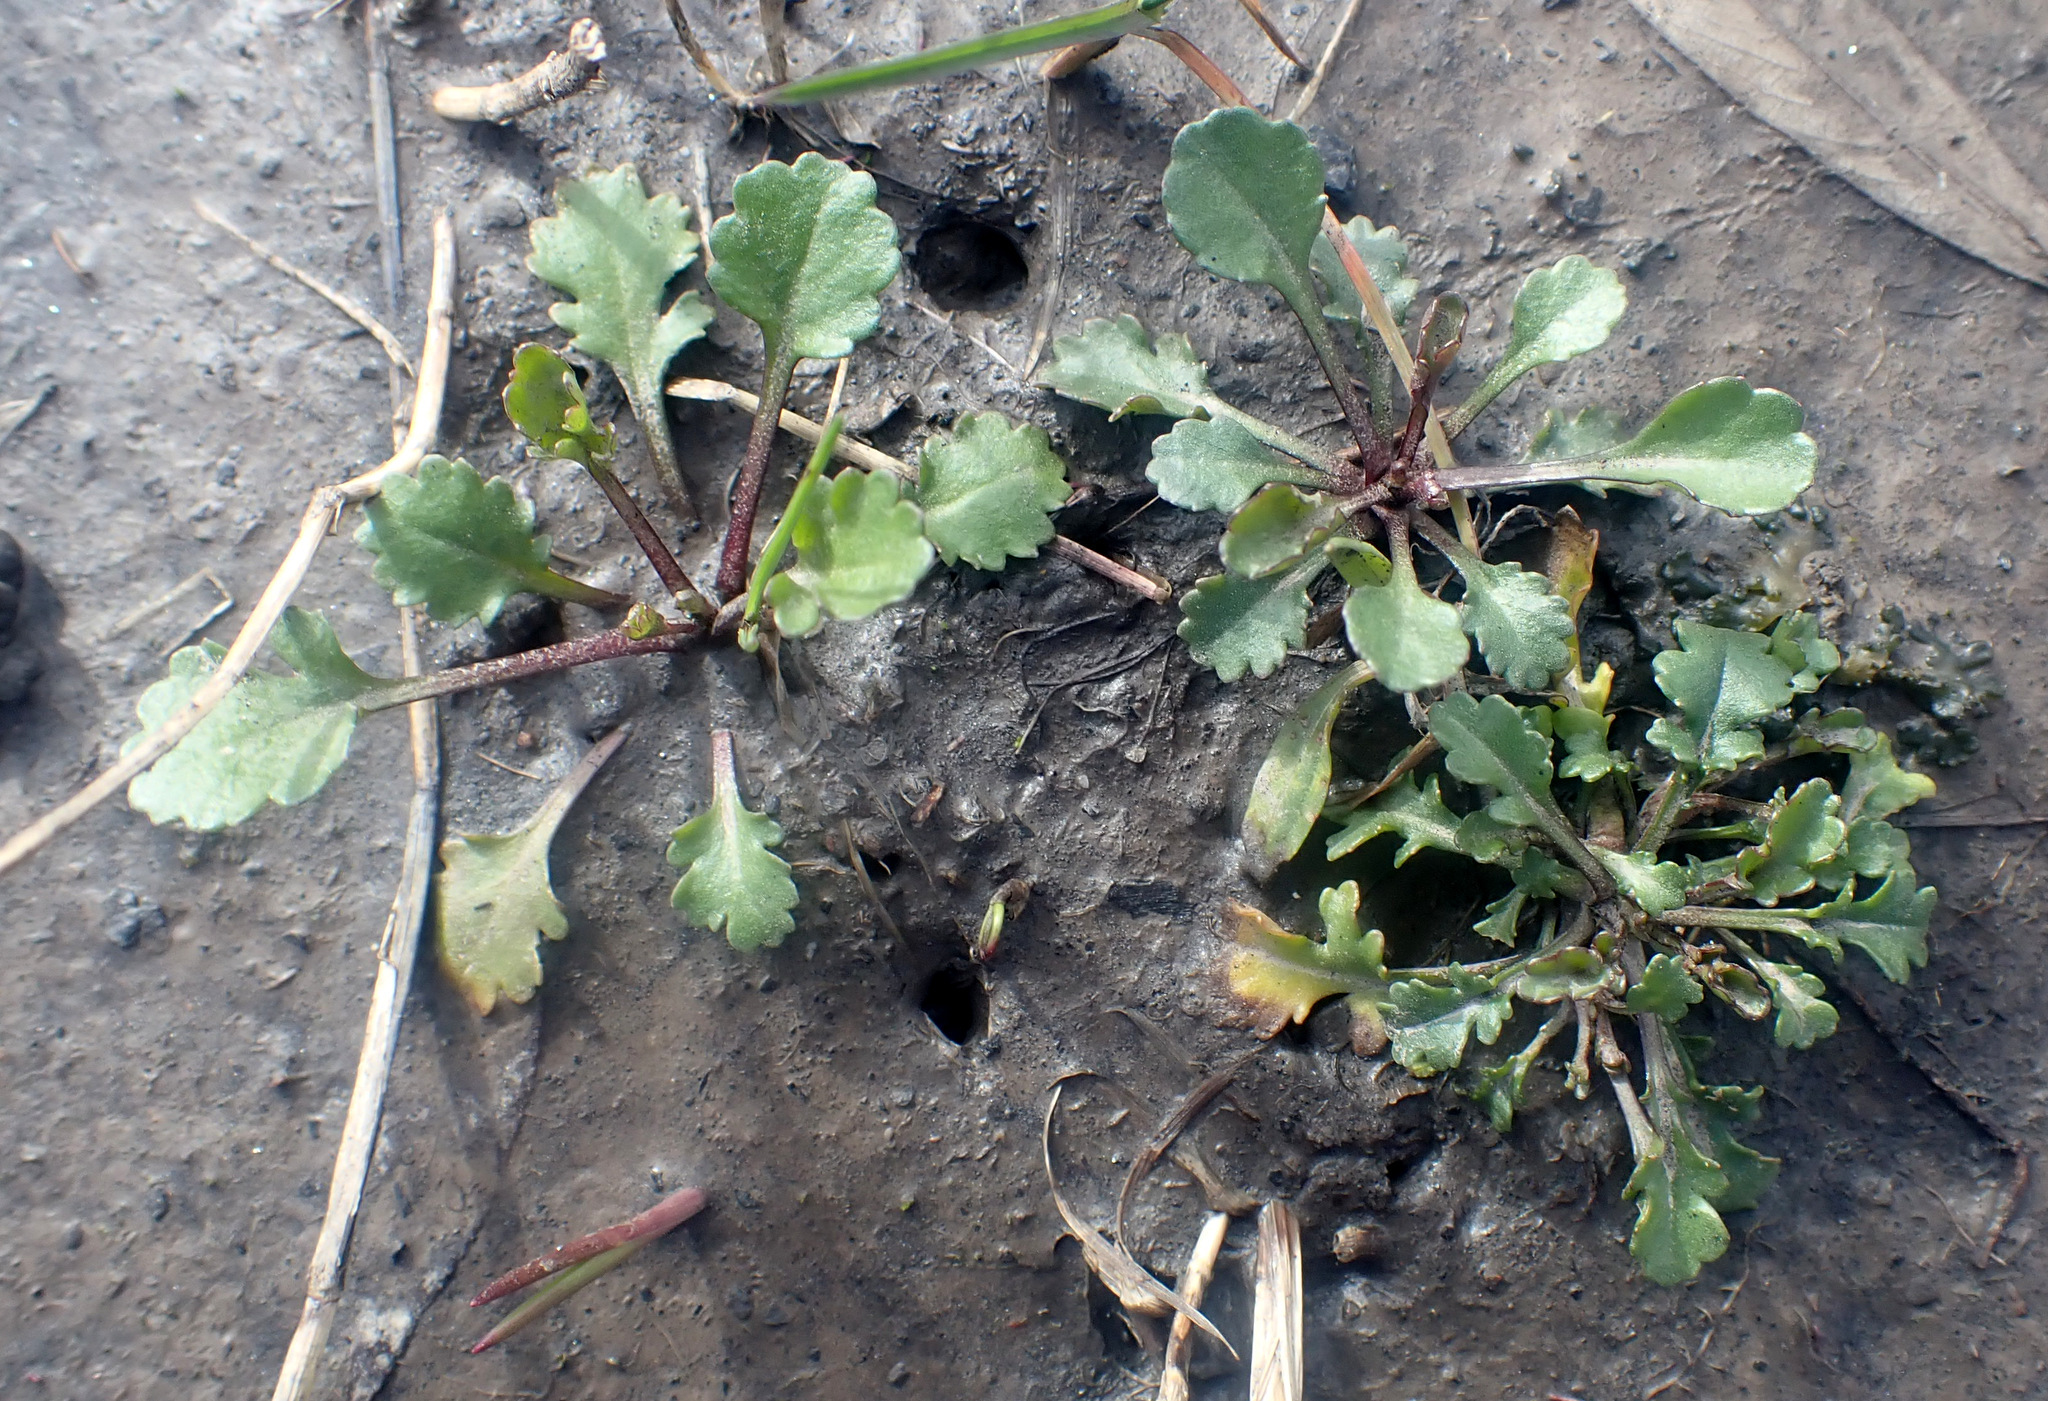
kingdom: Plantae
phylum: Tracheophyta
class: Magnoliopsida
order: Asterales
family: Asteraceae
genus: Leucanthemum
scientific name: Leucanthemum vulgare
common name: Oxeye daisy
